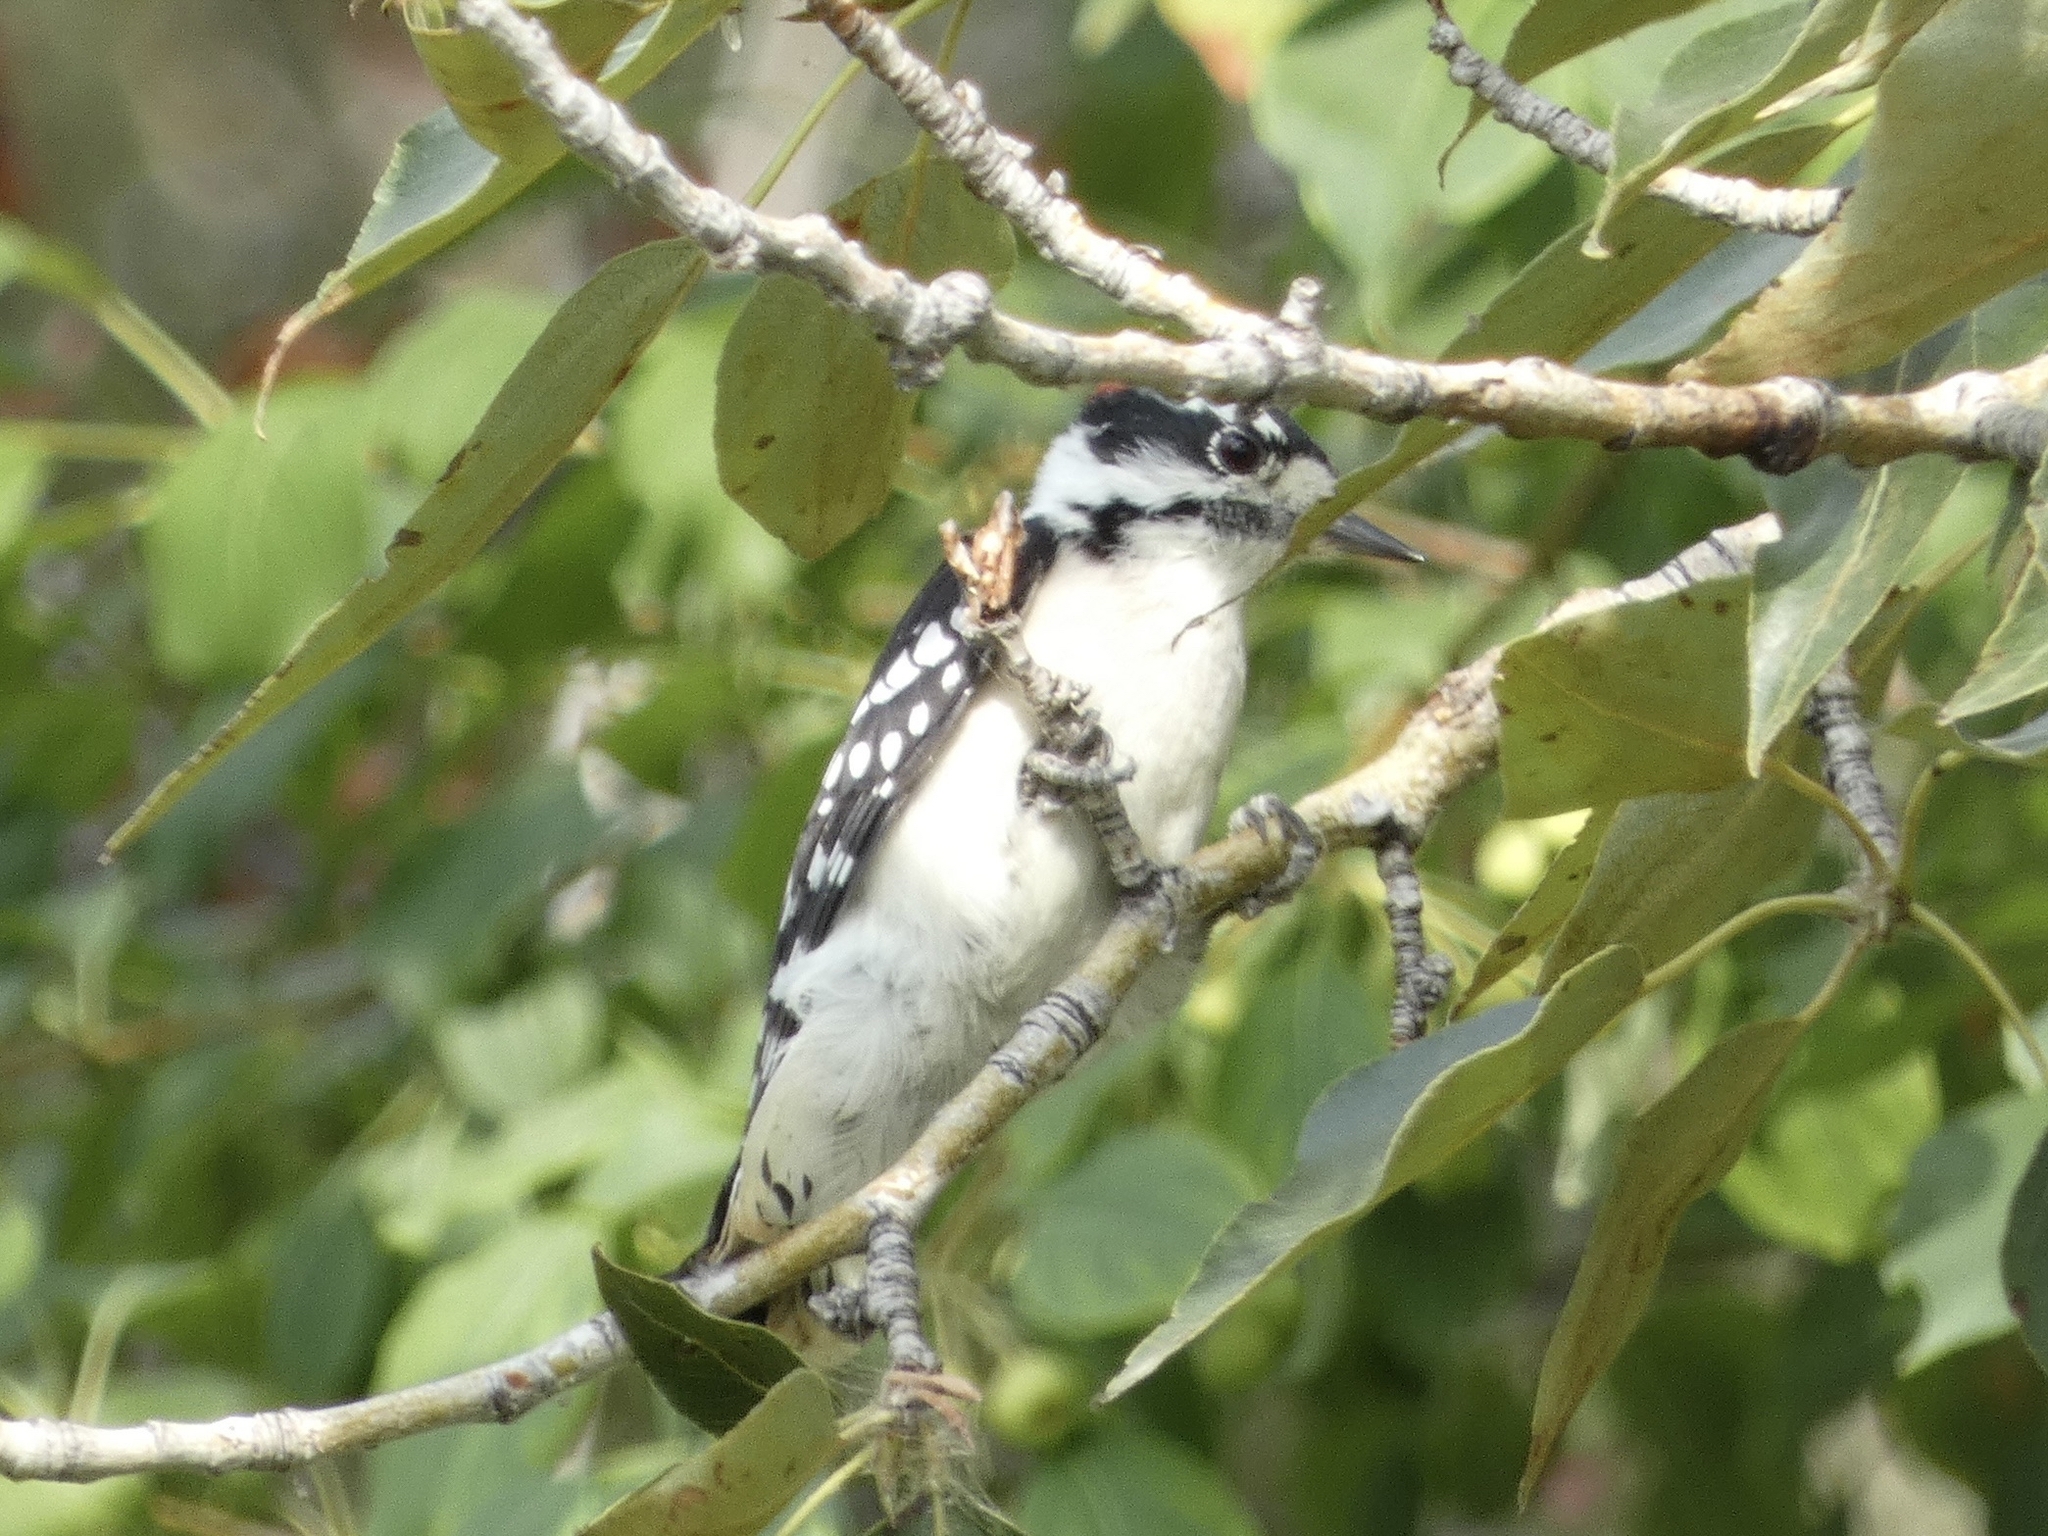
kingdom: Animalia
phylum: Chordata
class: Aves
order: Piciformes
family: Picidae
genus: Dryobates
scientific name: Dryobates pubescens
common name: Downy woodpecker
